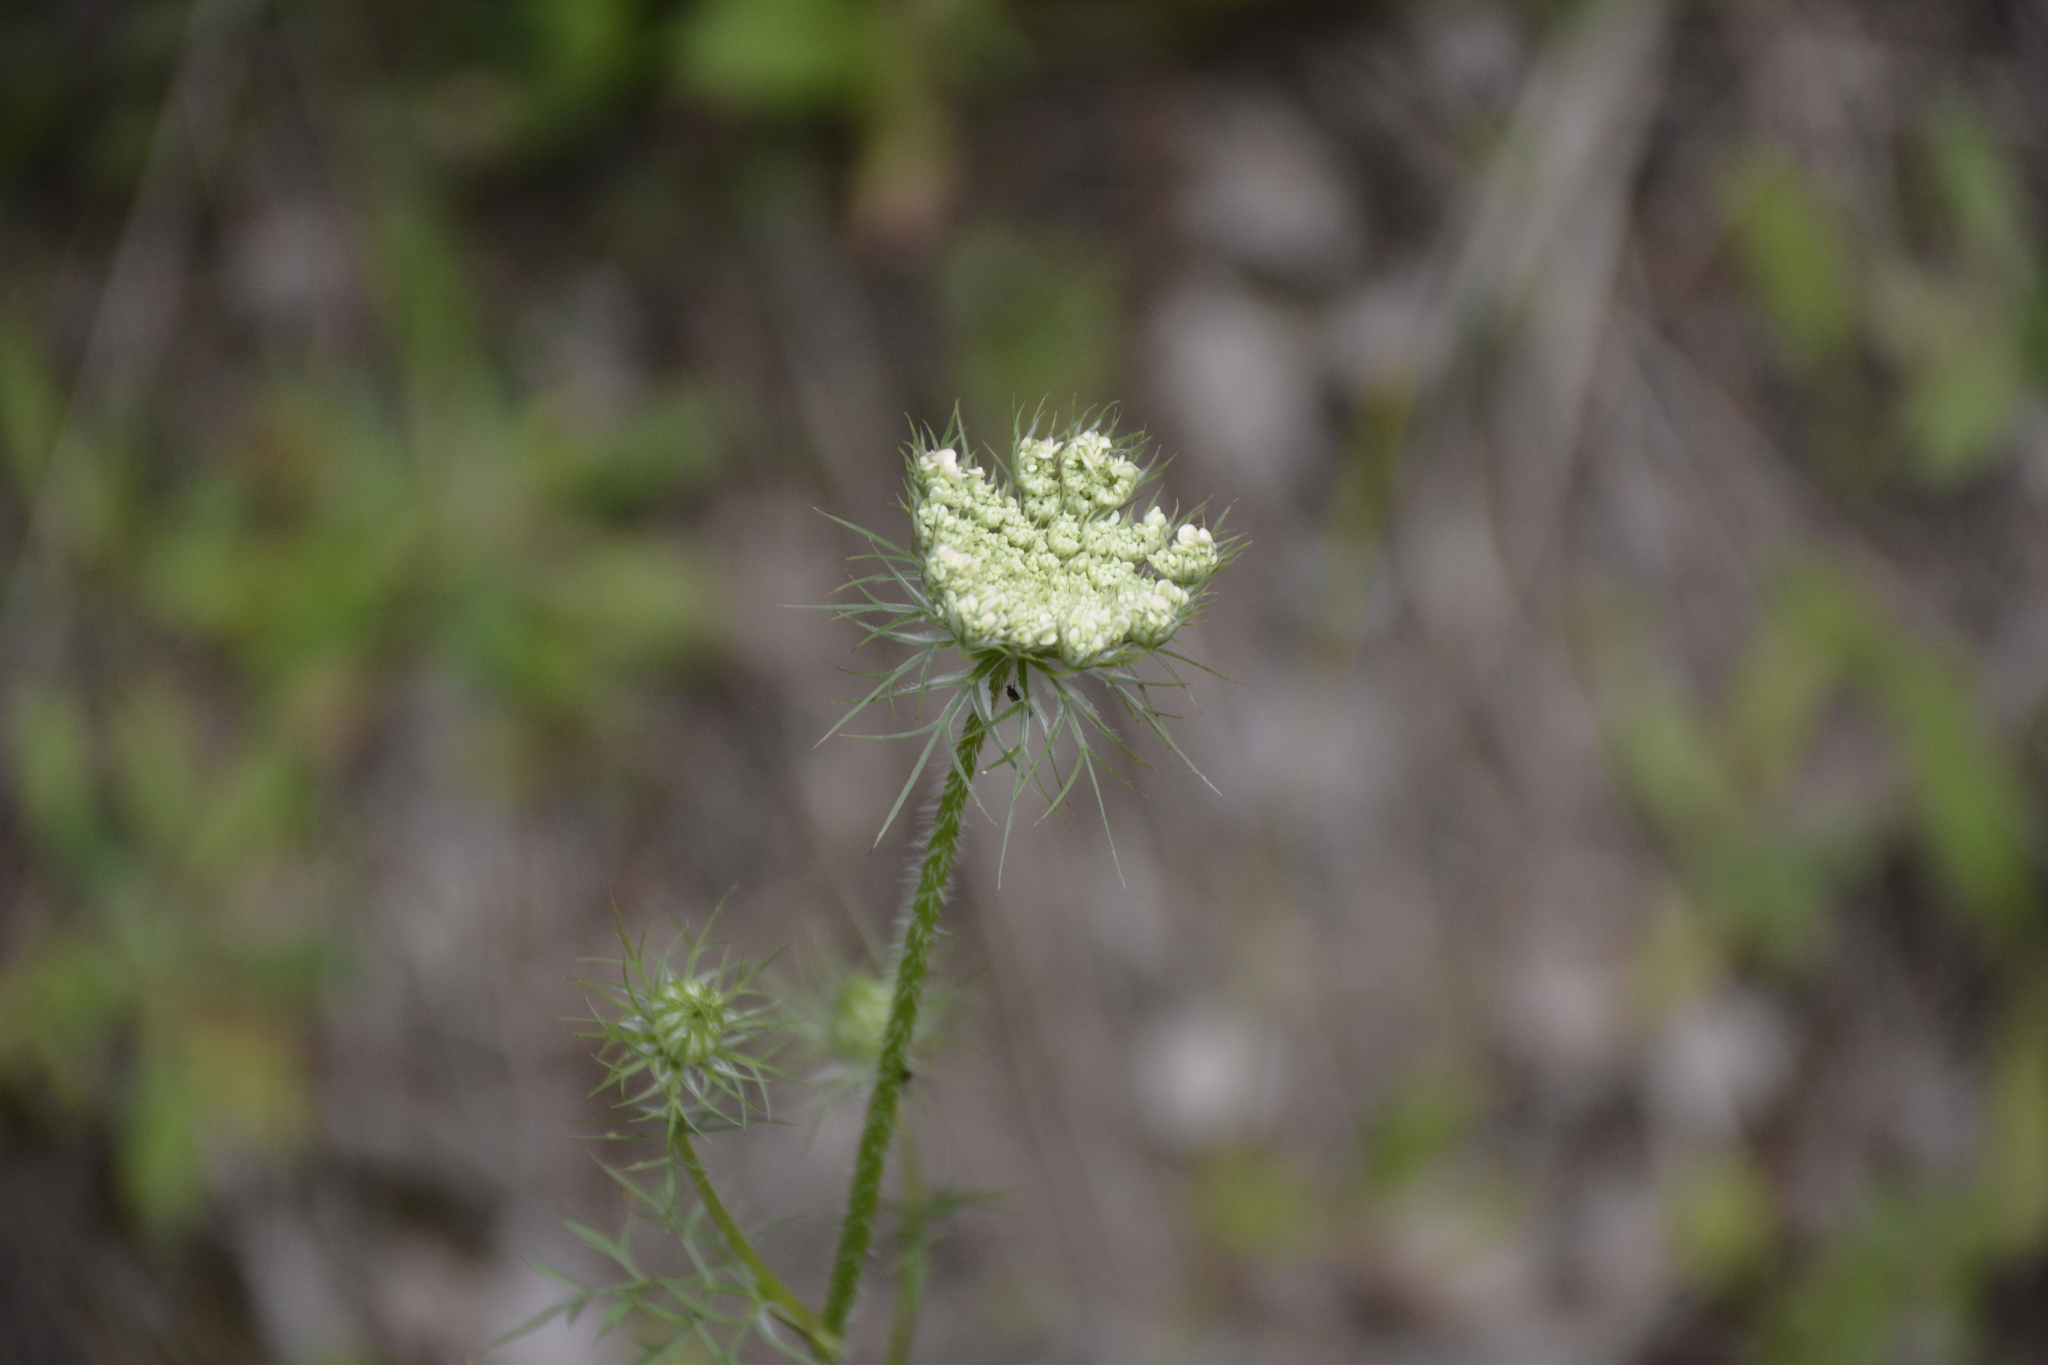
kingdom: Plantae
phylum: Tracheophyta
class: Magnoliopsida
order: Apiales
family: Apiaceae
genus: Daucus
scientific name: Daucus carota
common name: Wild carrot
